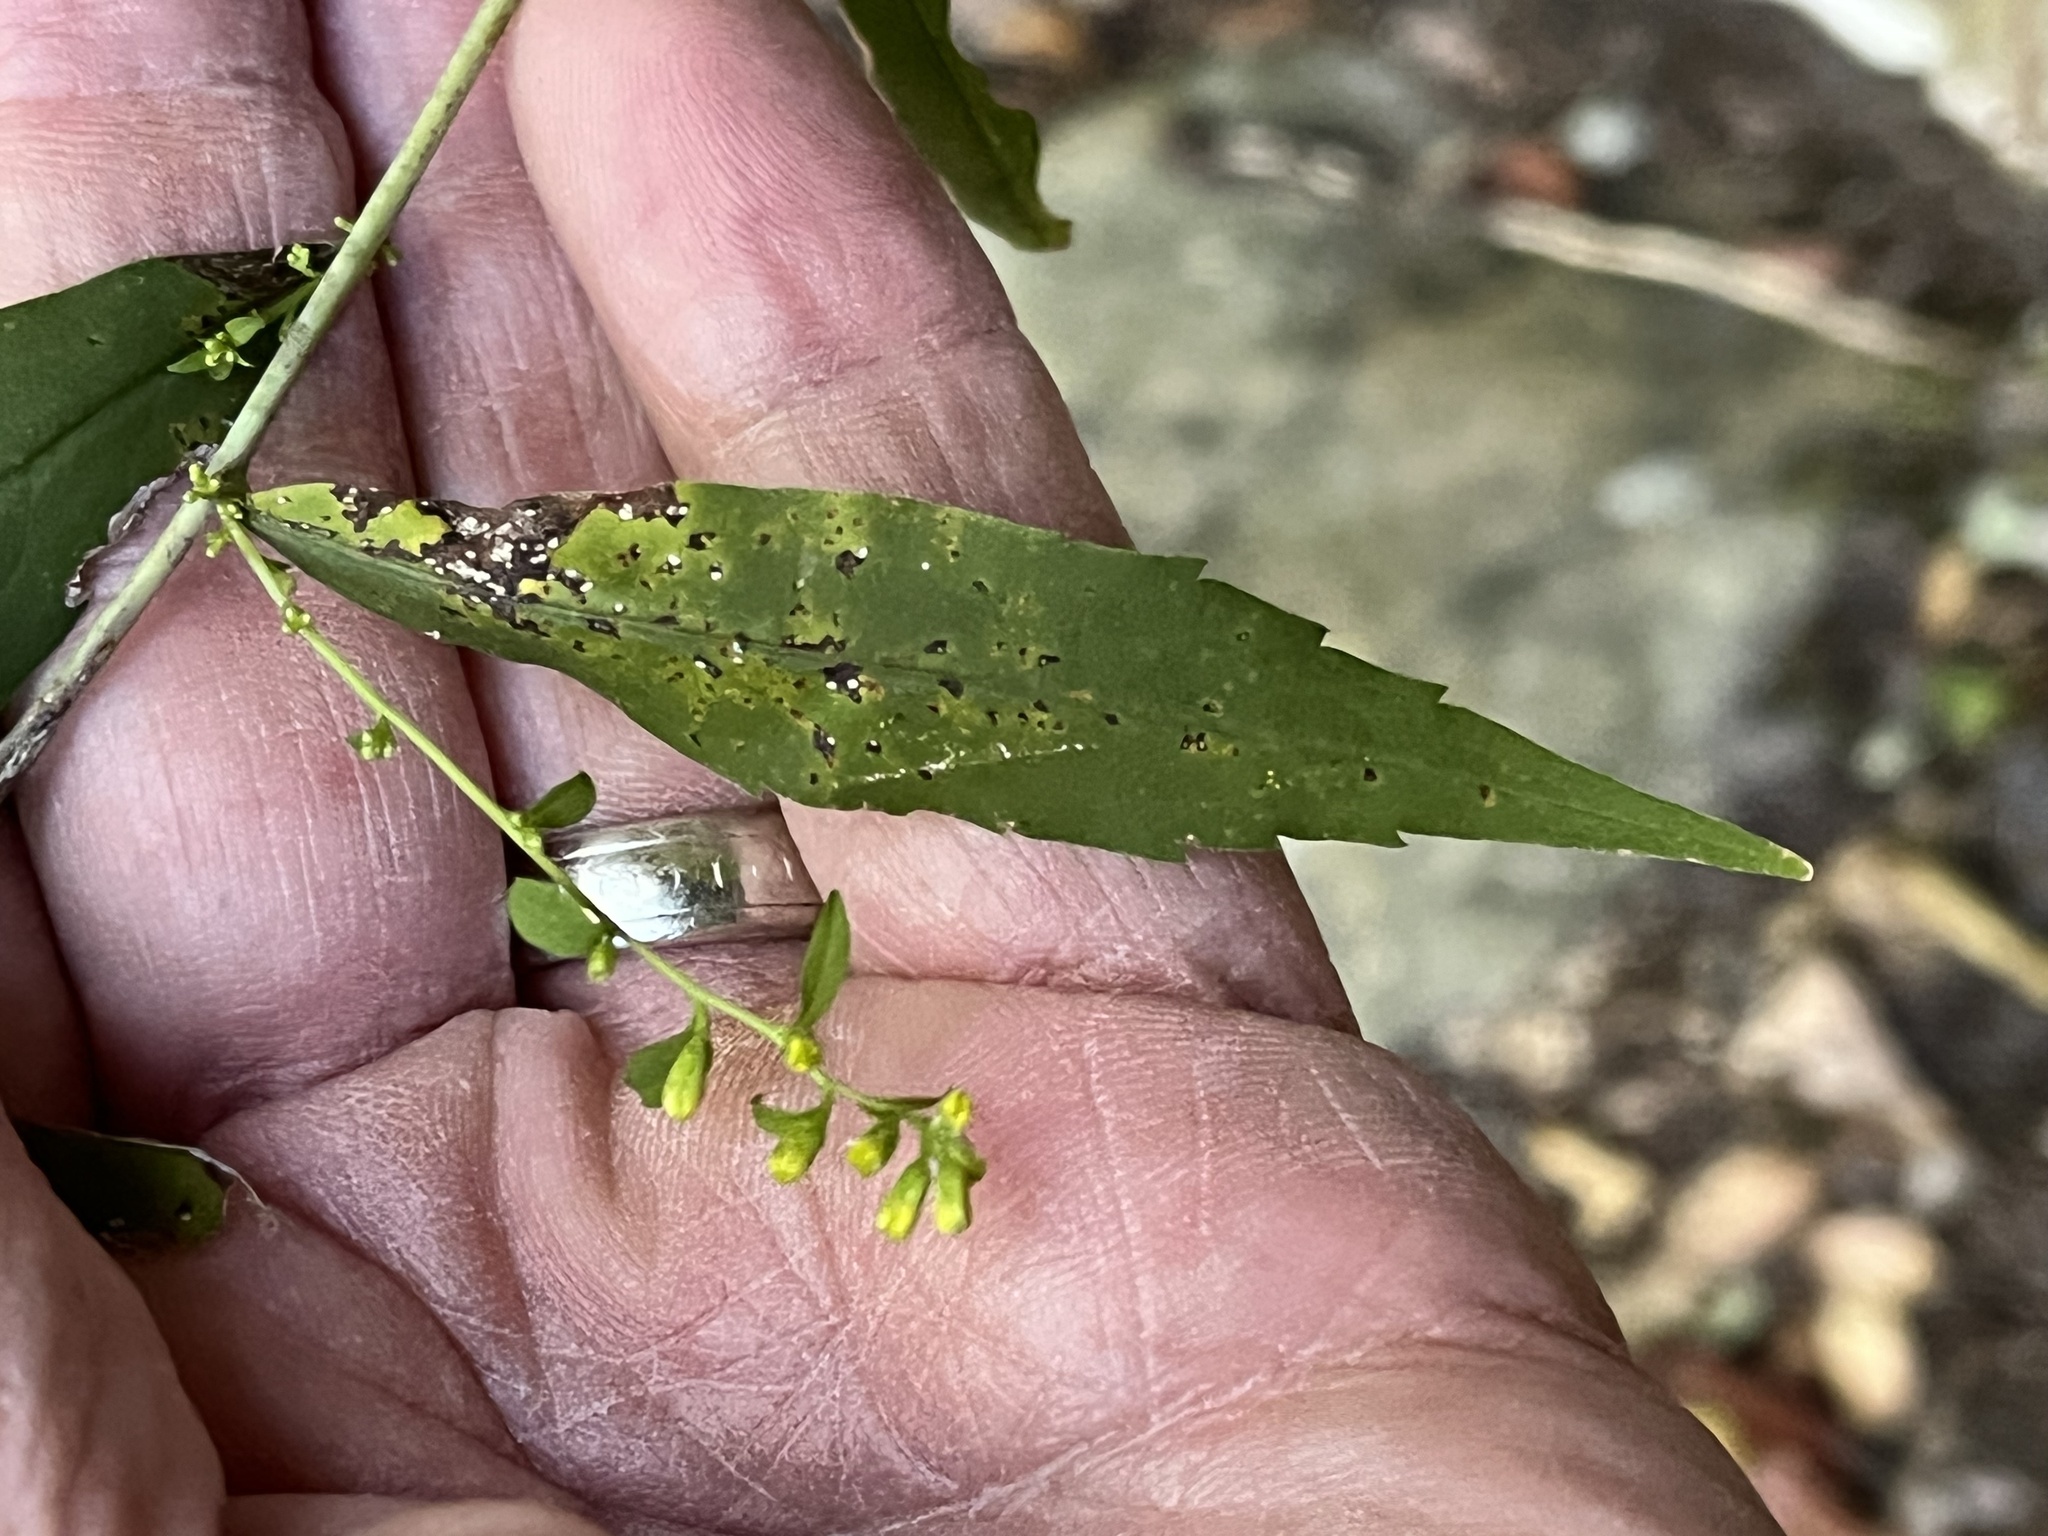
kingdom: Plantae
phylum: Tracheophyta
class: Magnoliopsida
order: Asterales
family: Asteraceae
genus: Solidago
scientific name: Solidago caesia
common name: Woodland goldenrod
